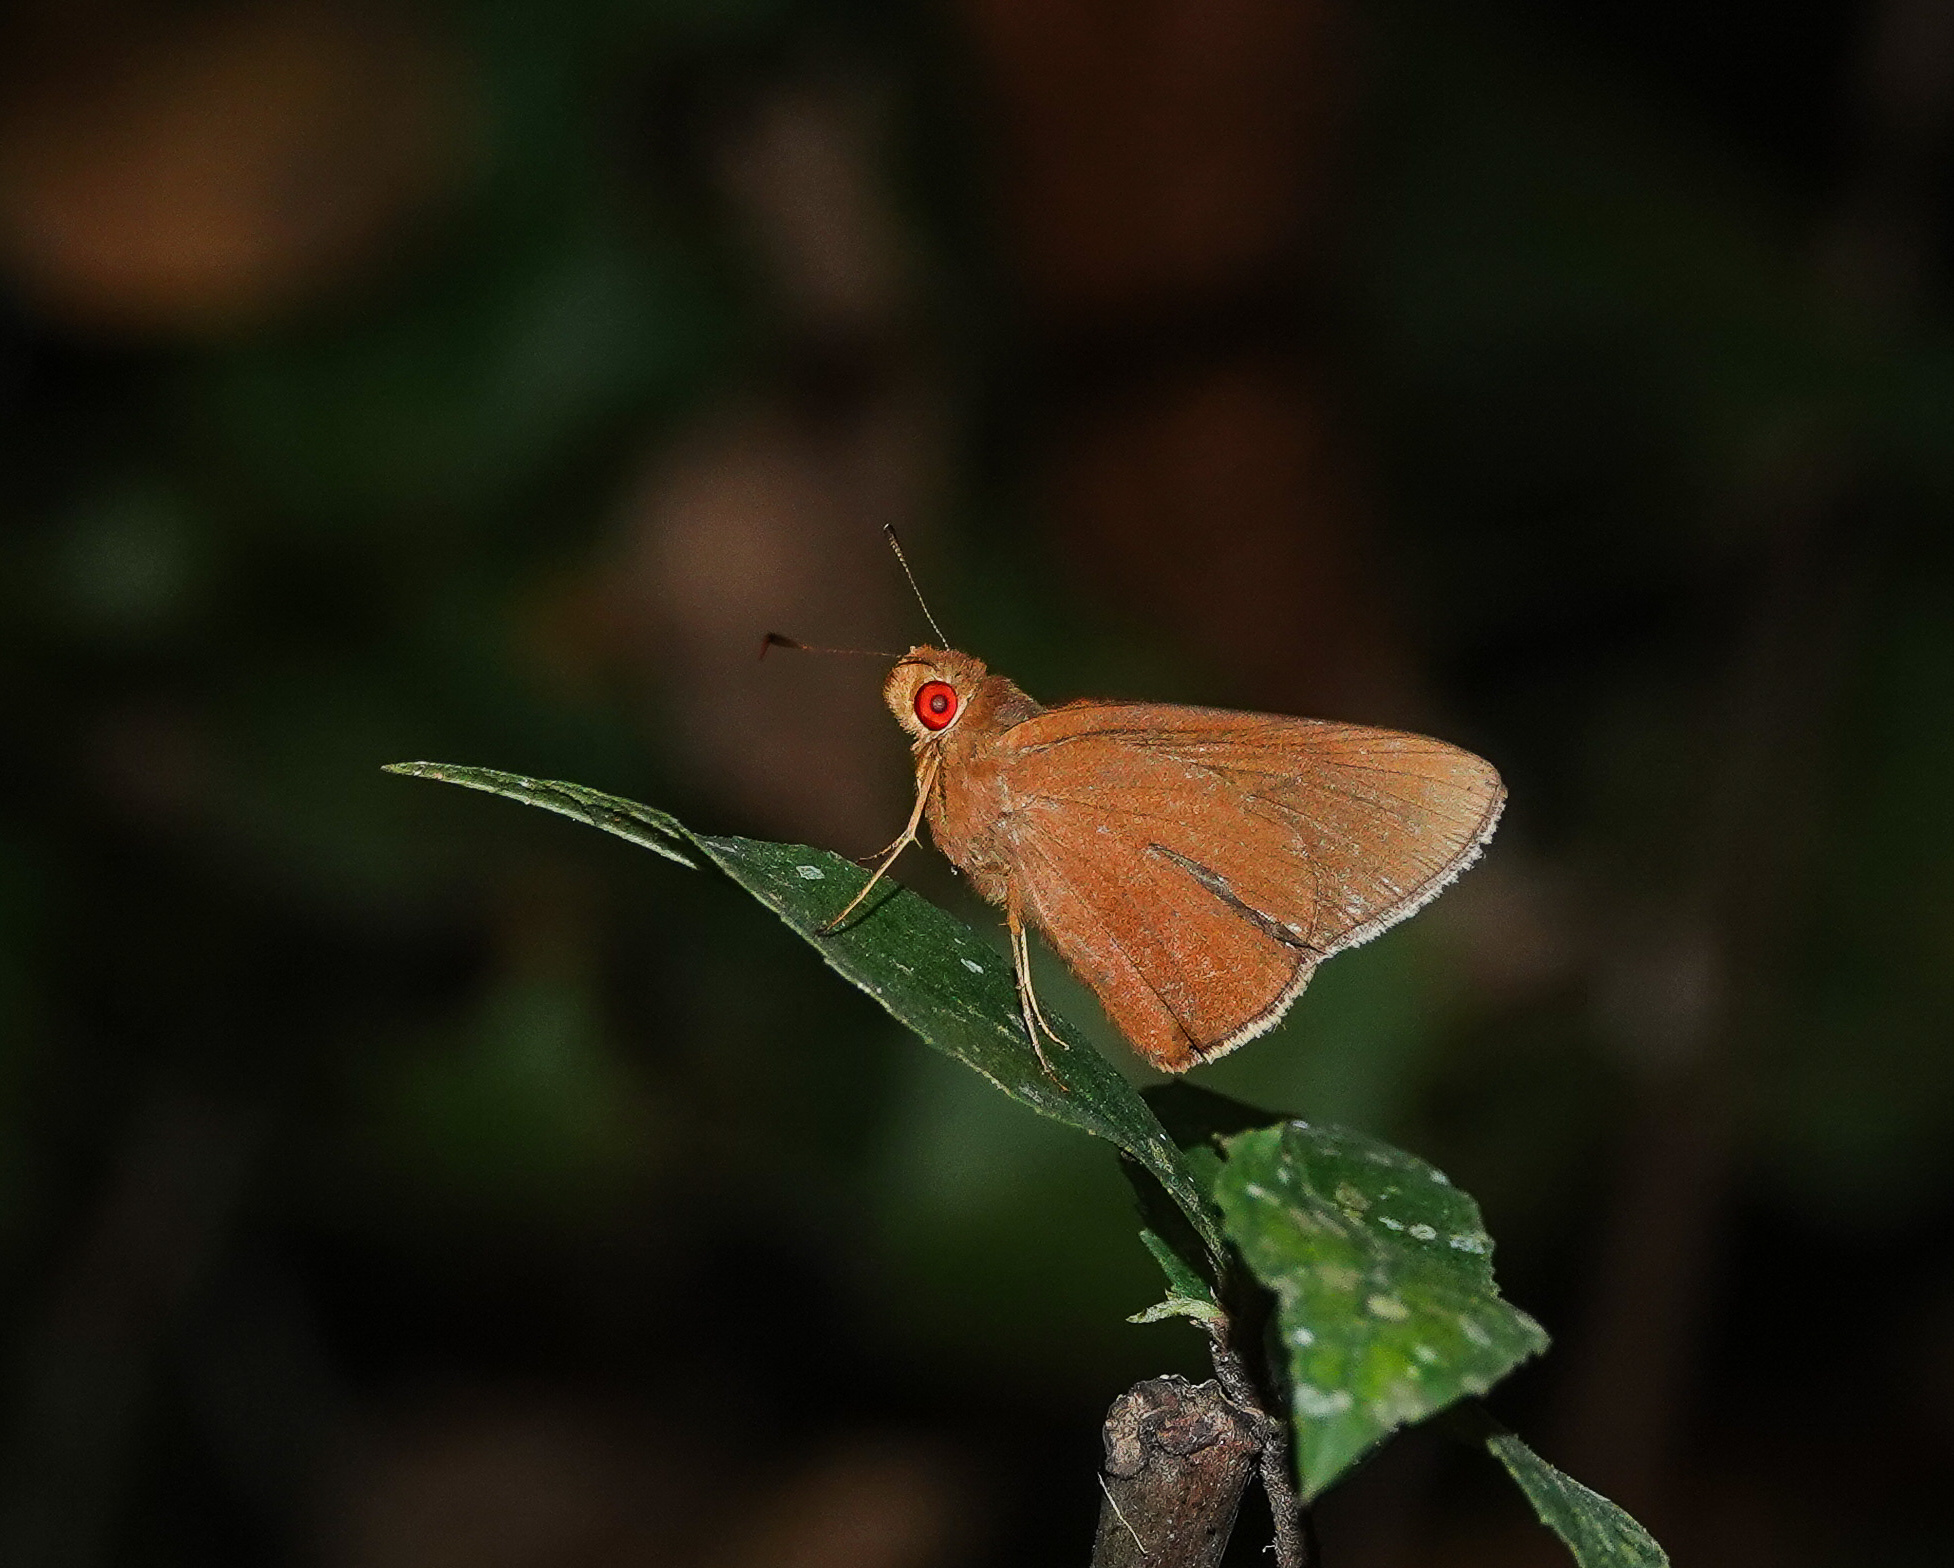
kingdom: Animalia
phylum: Arthropoda
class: Insecta
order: Lepidoptera
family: Hesperiidae
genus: Matapa
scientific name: Matapa aria
